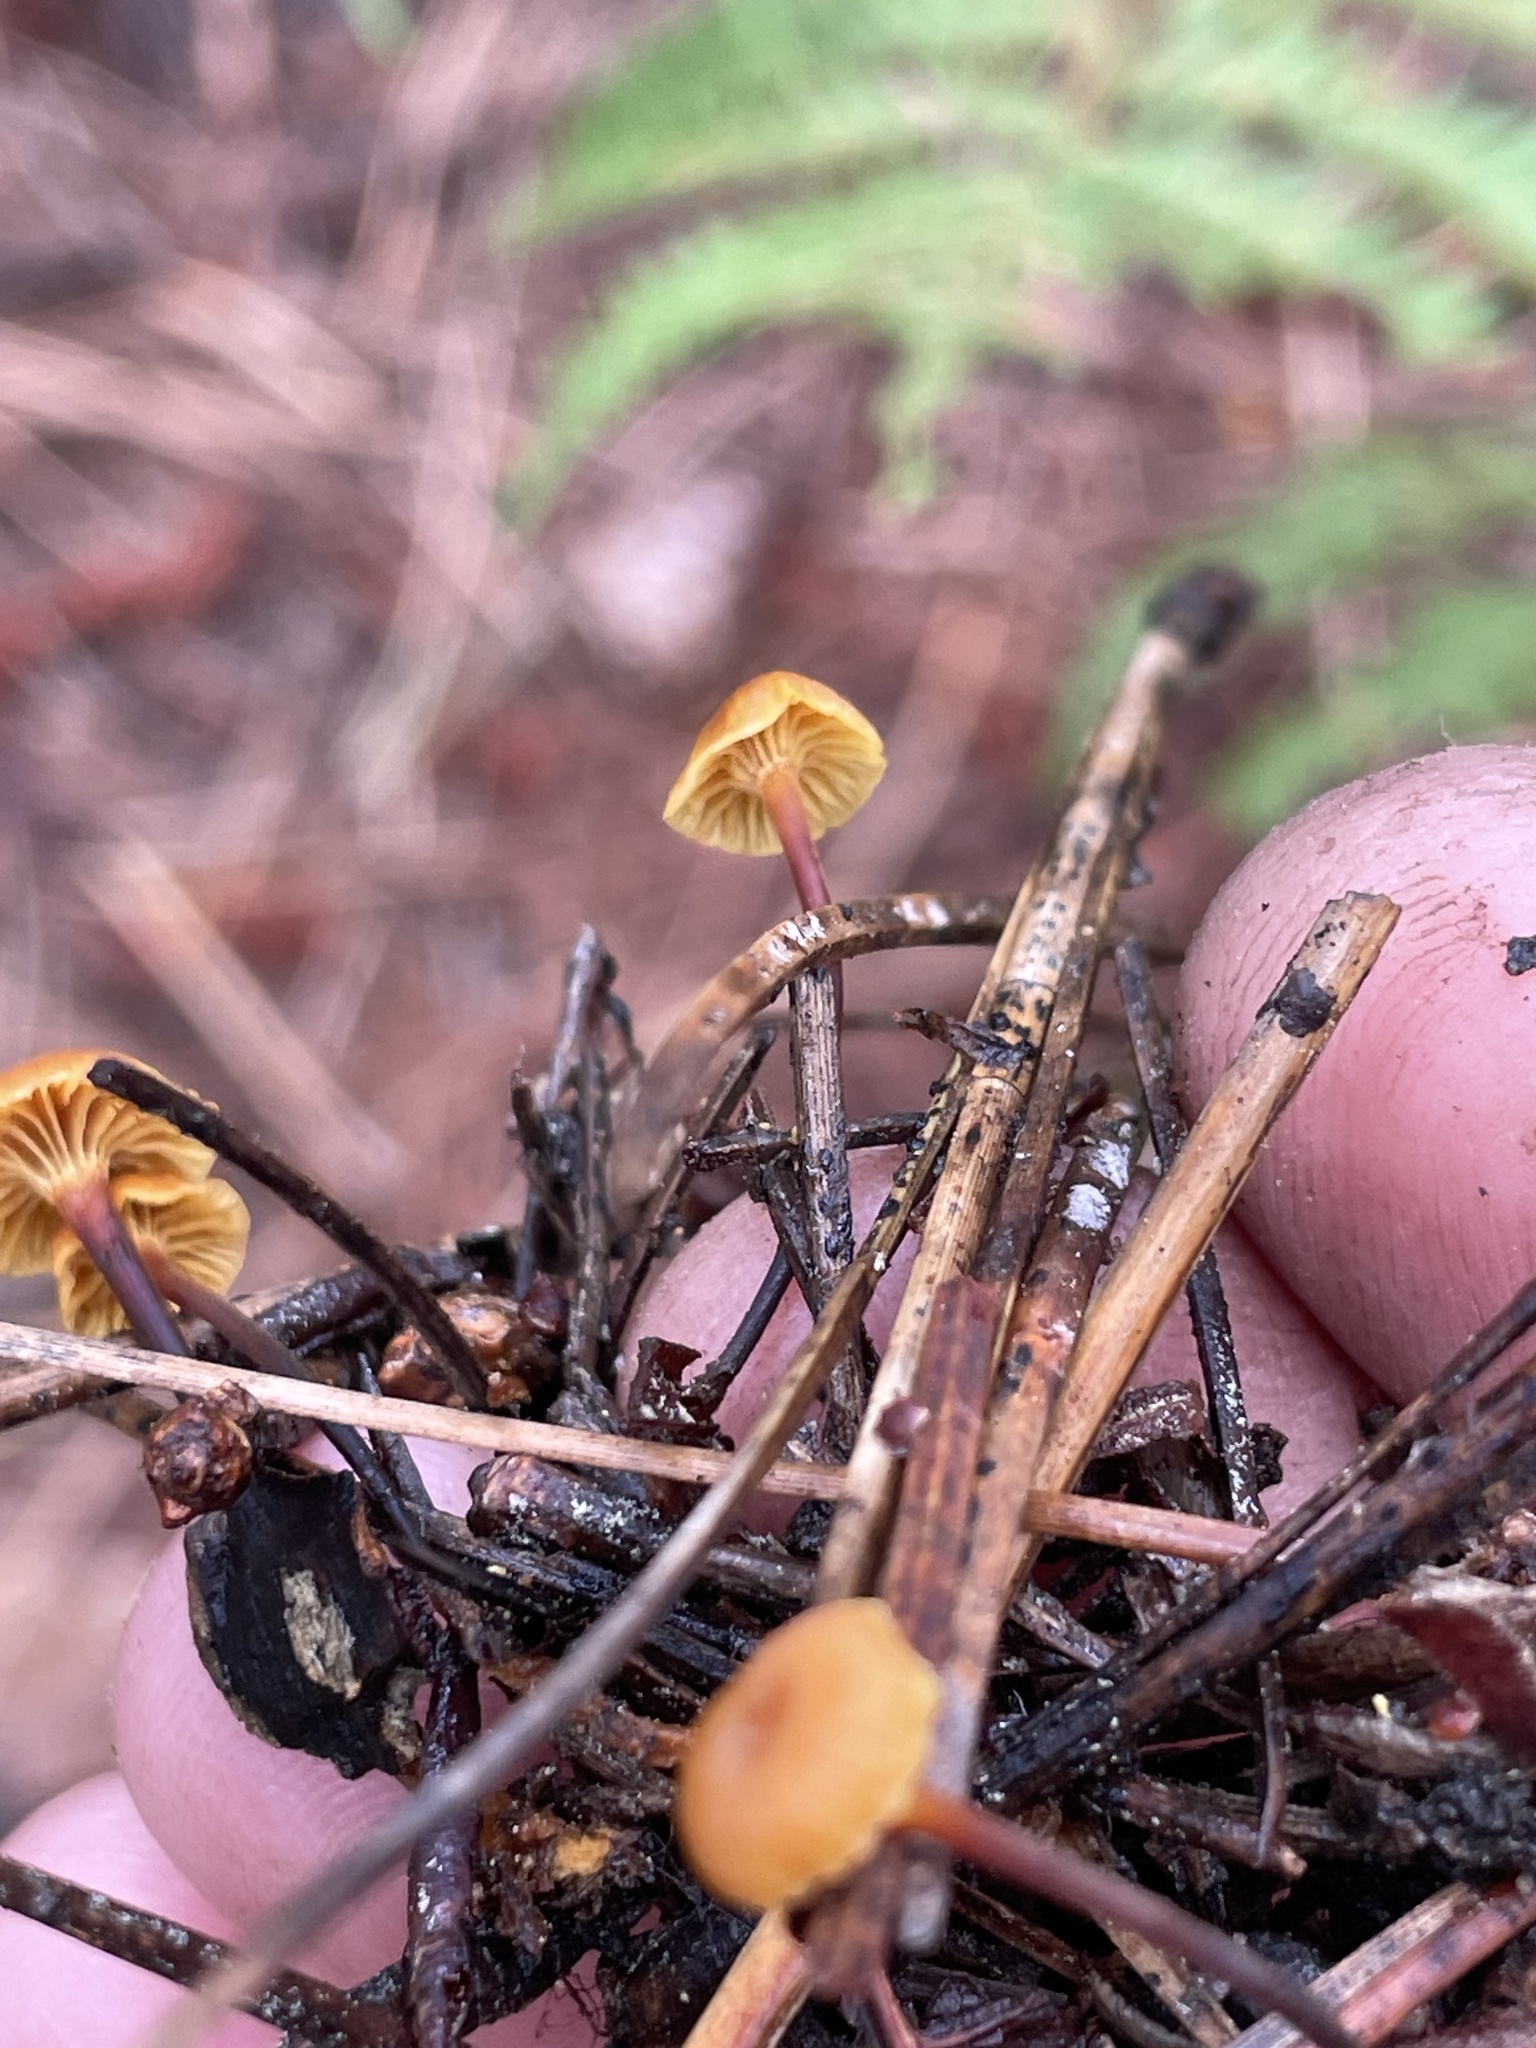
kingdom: Fungi
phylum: Basidiomycota
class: Agaricomycetes
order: Agaricales
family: Mycenaceae
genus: Xeromphalina
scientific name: Xeromphalina cirris
